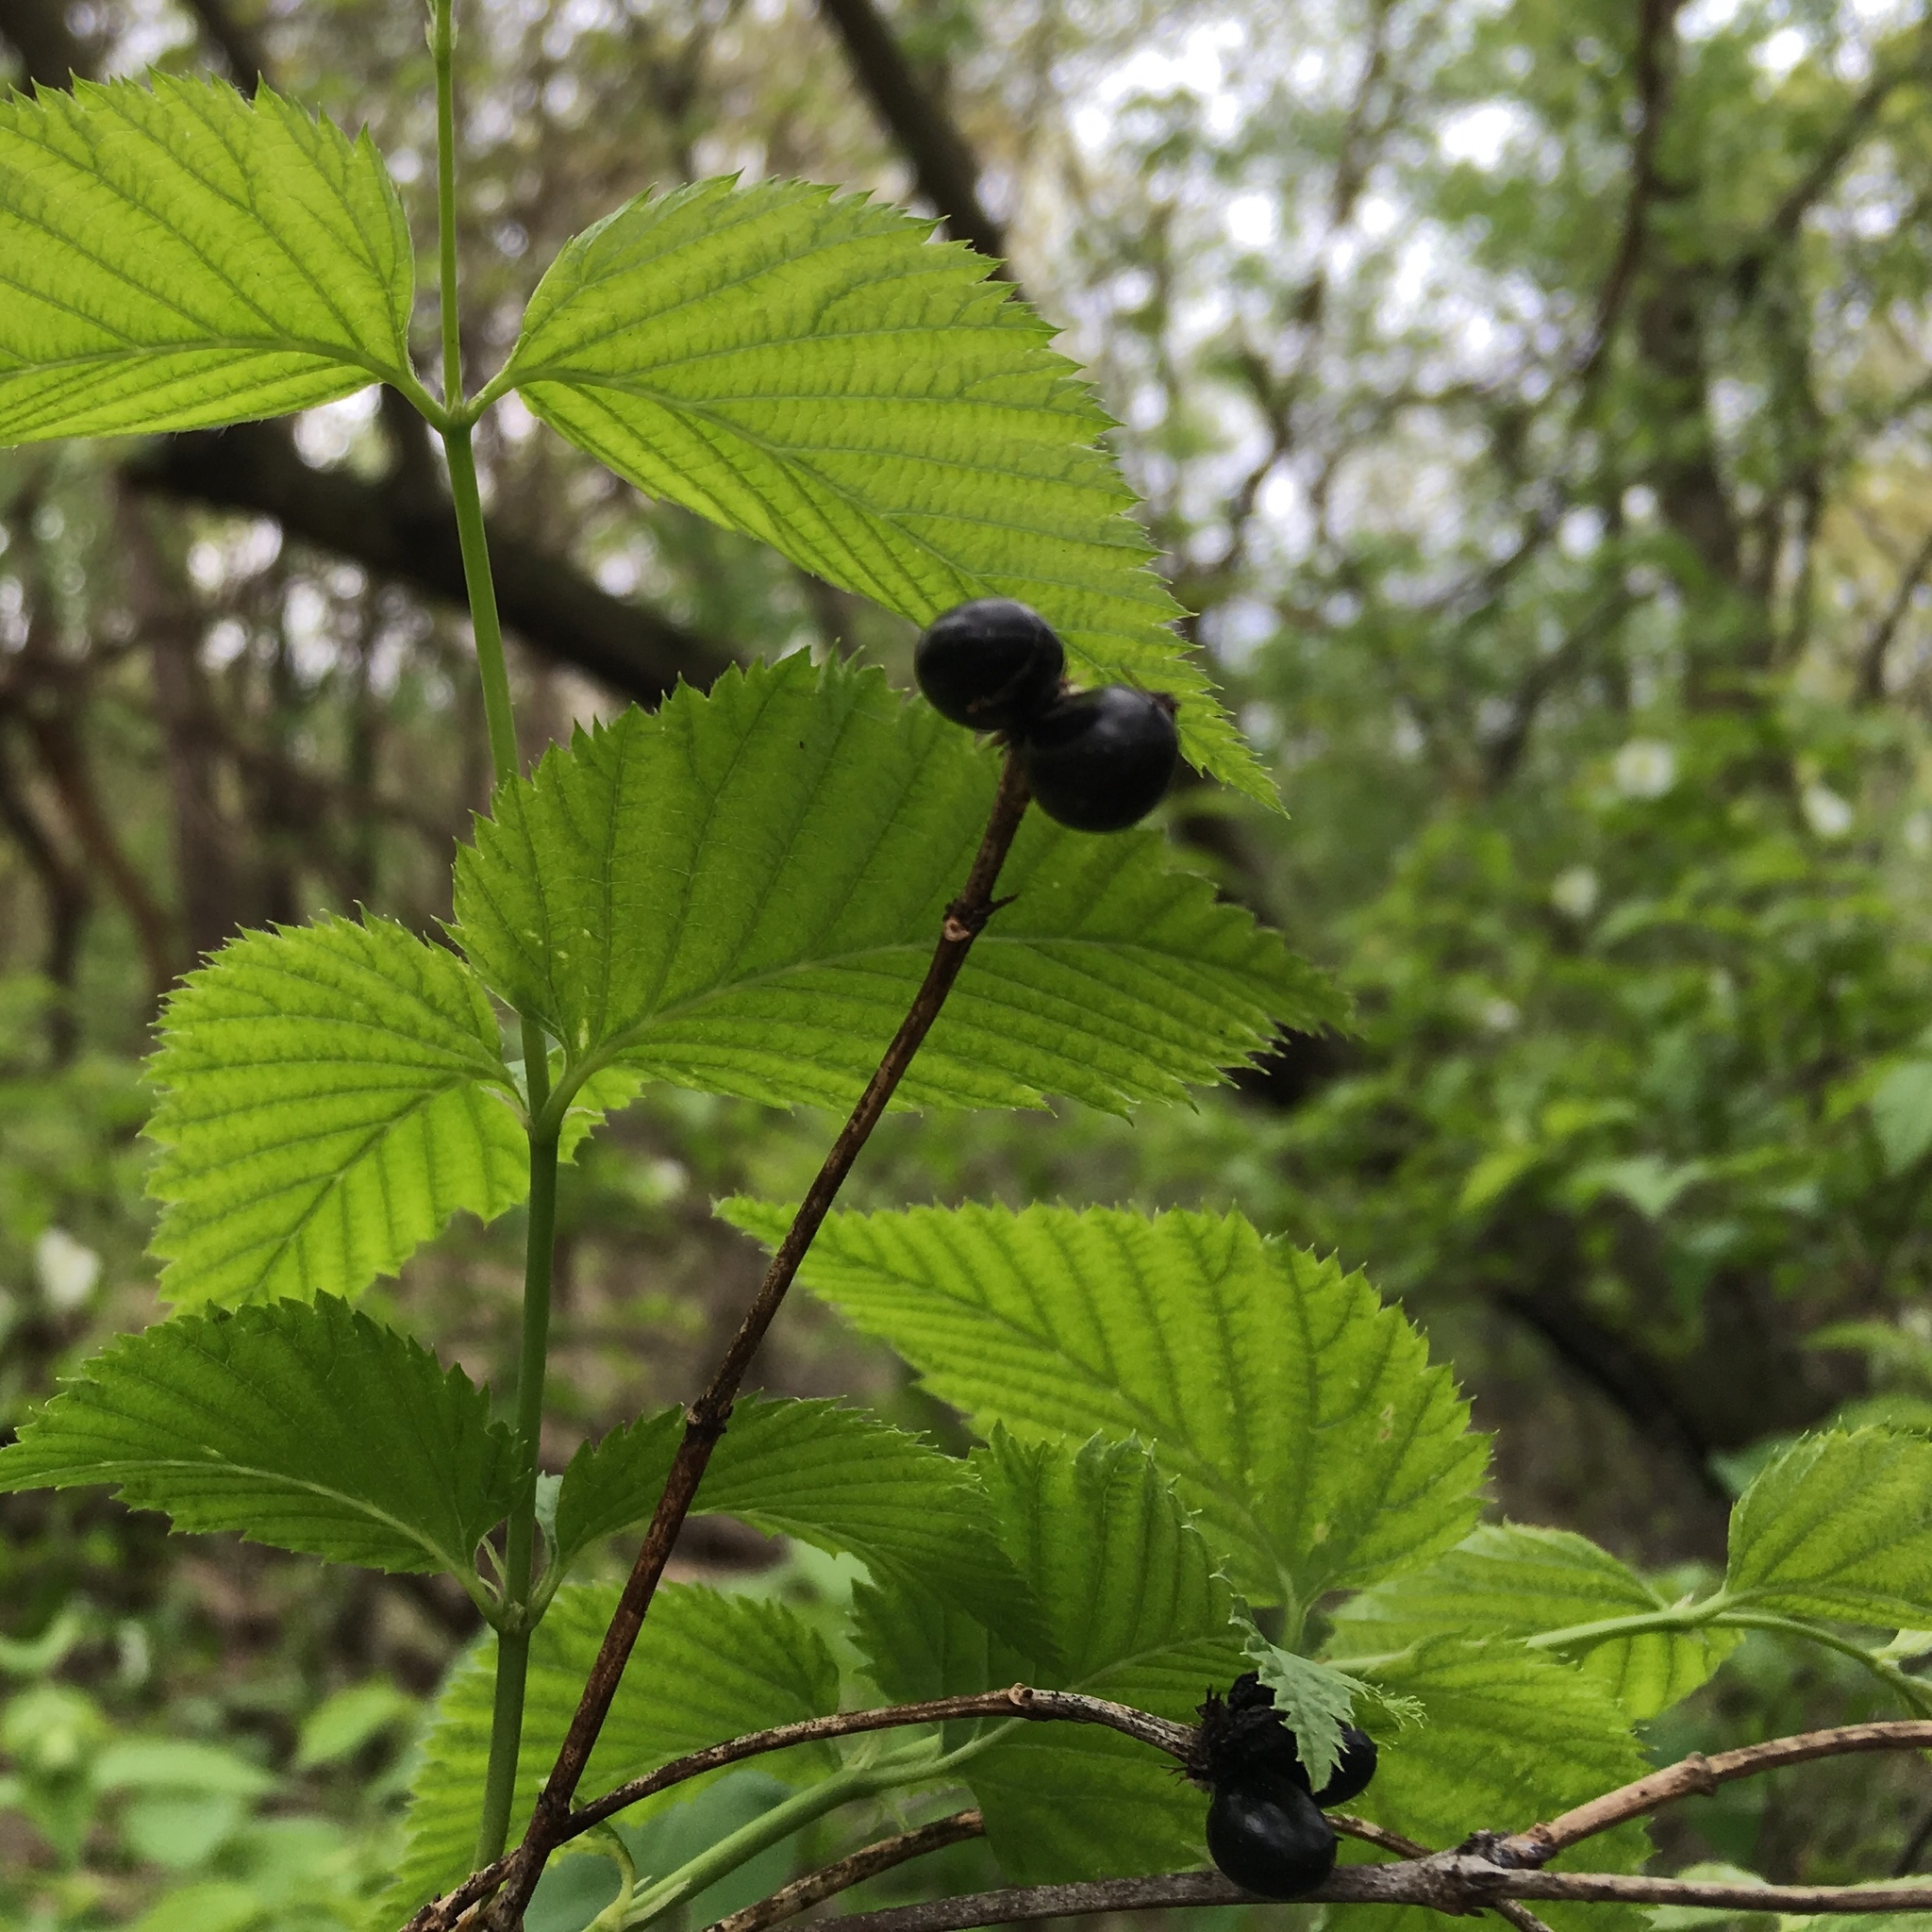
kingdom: Plantae
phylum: Tracheophyta
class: Magnoliopsida
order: Rosales
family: Rosaceae
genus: Rhodotypos
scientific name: Rhodotypos scandens
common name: Jetbead
